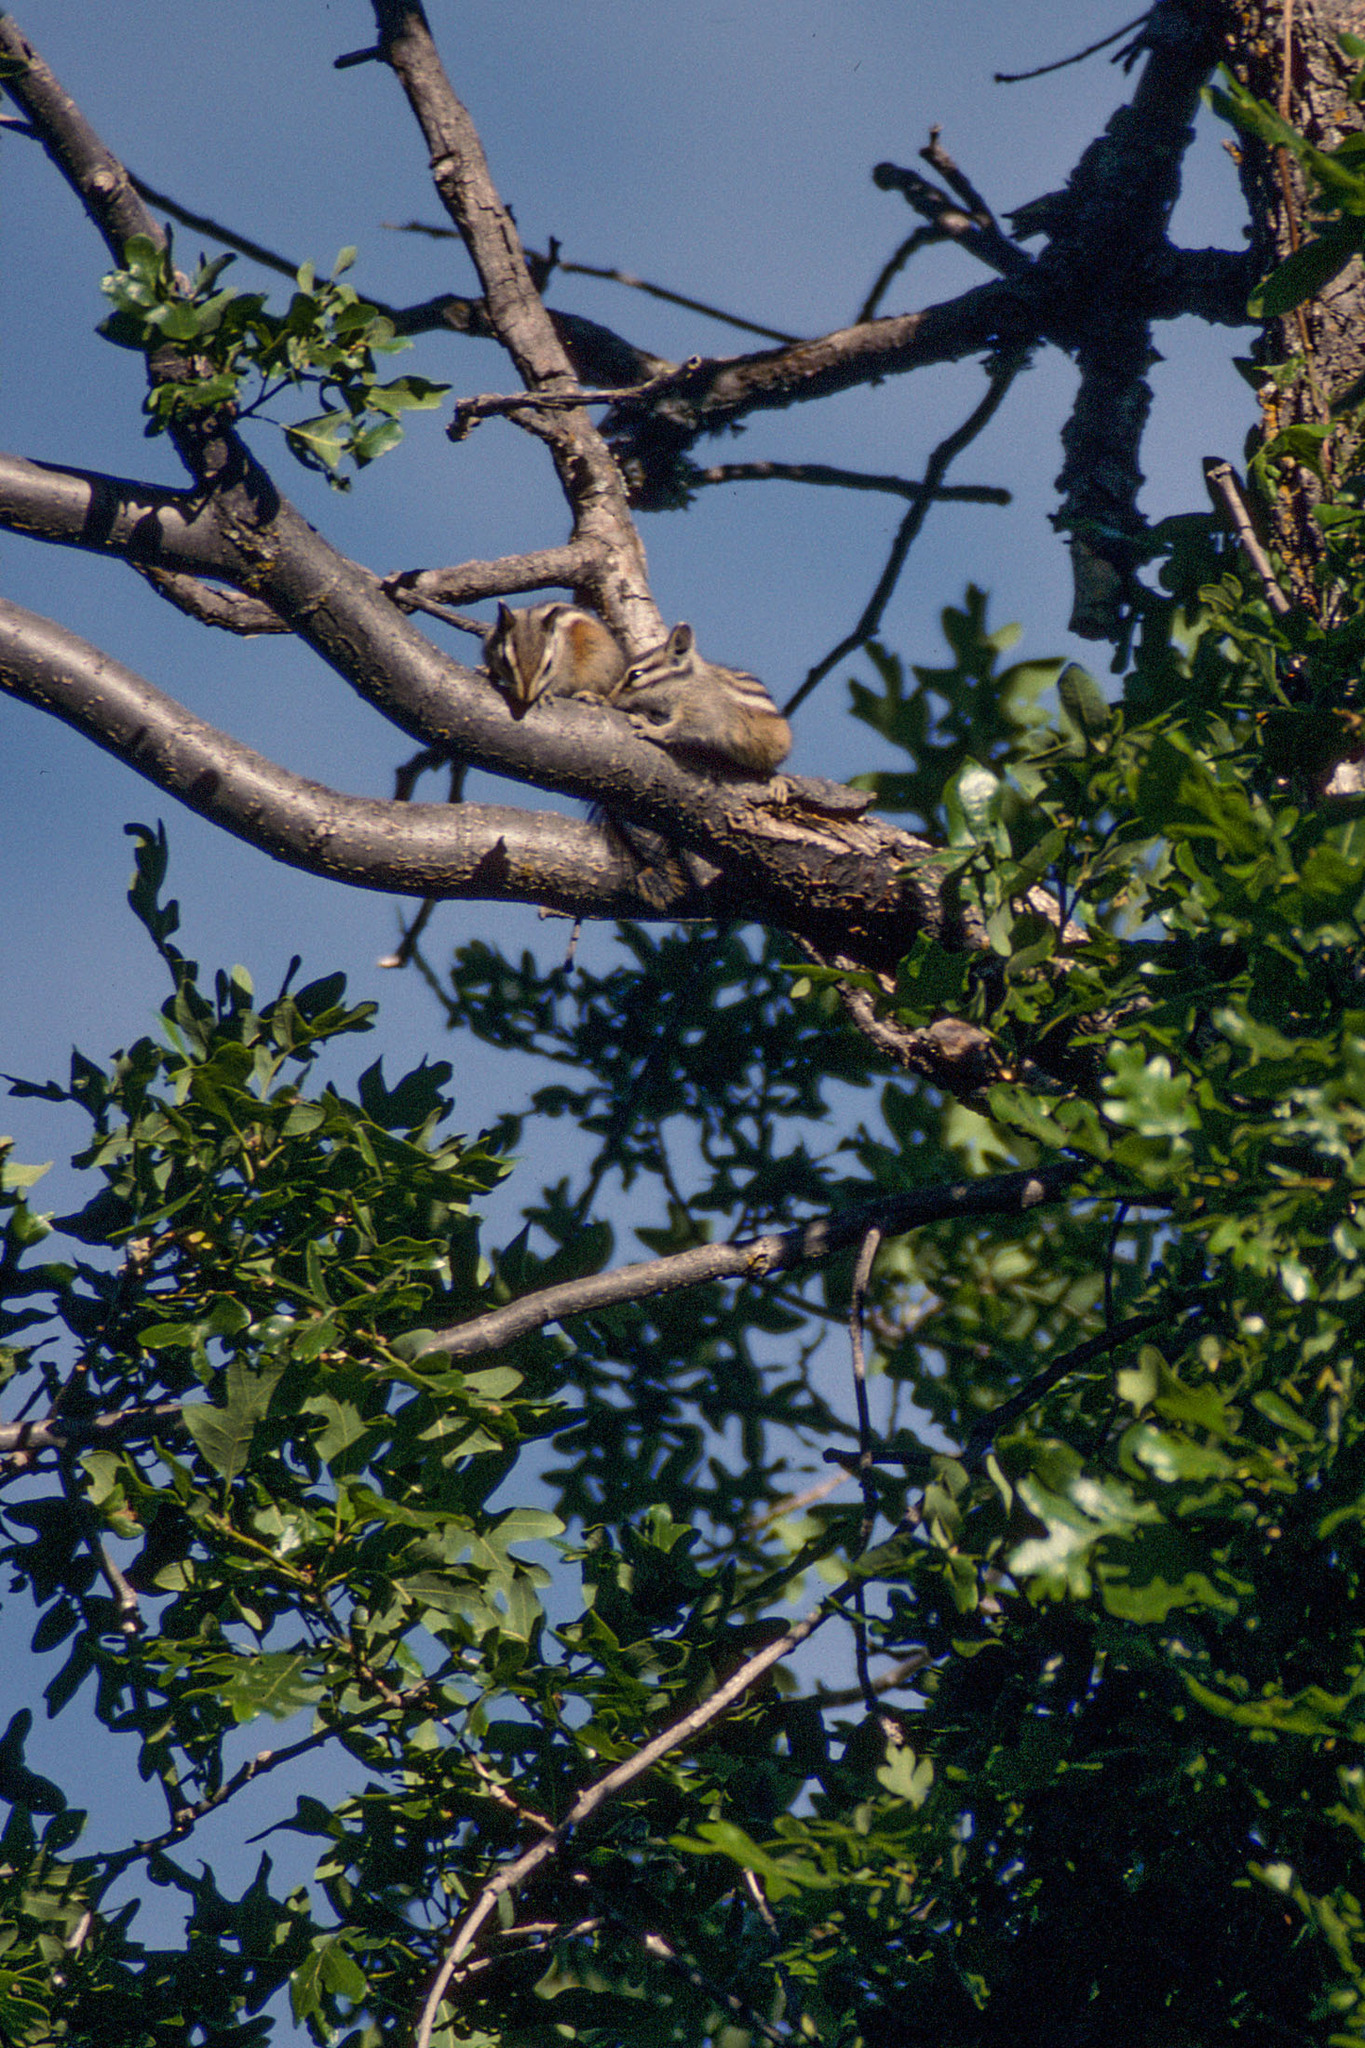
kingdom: Animalia
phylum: Chordata
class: Mammalia
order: Rodentia
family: Sciuridae
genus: Tamias
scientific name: Tamias cinereicollis
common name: Gray-collared chipmunk
